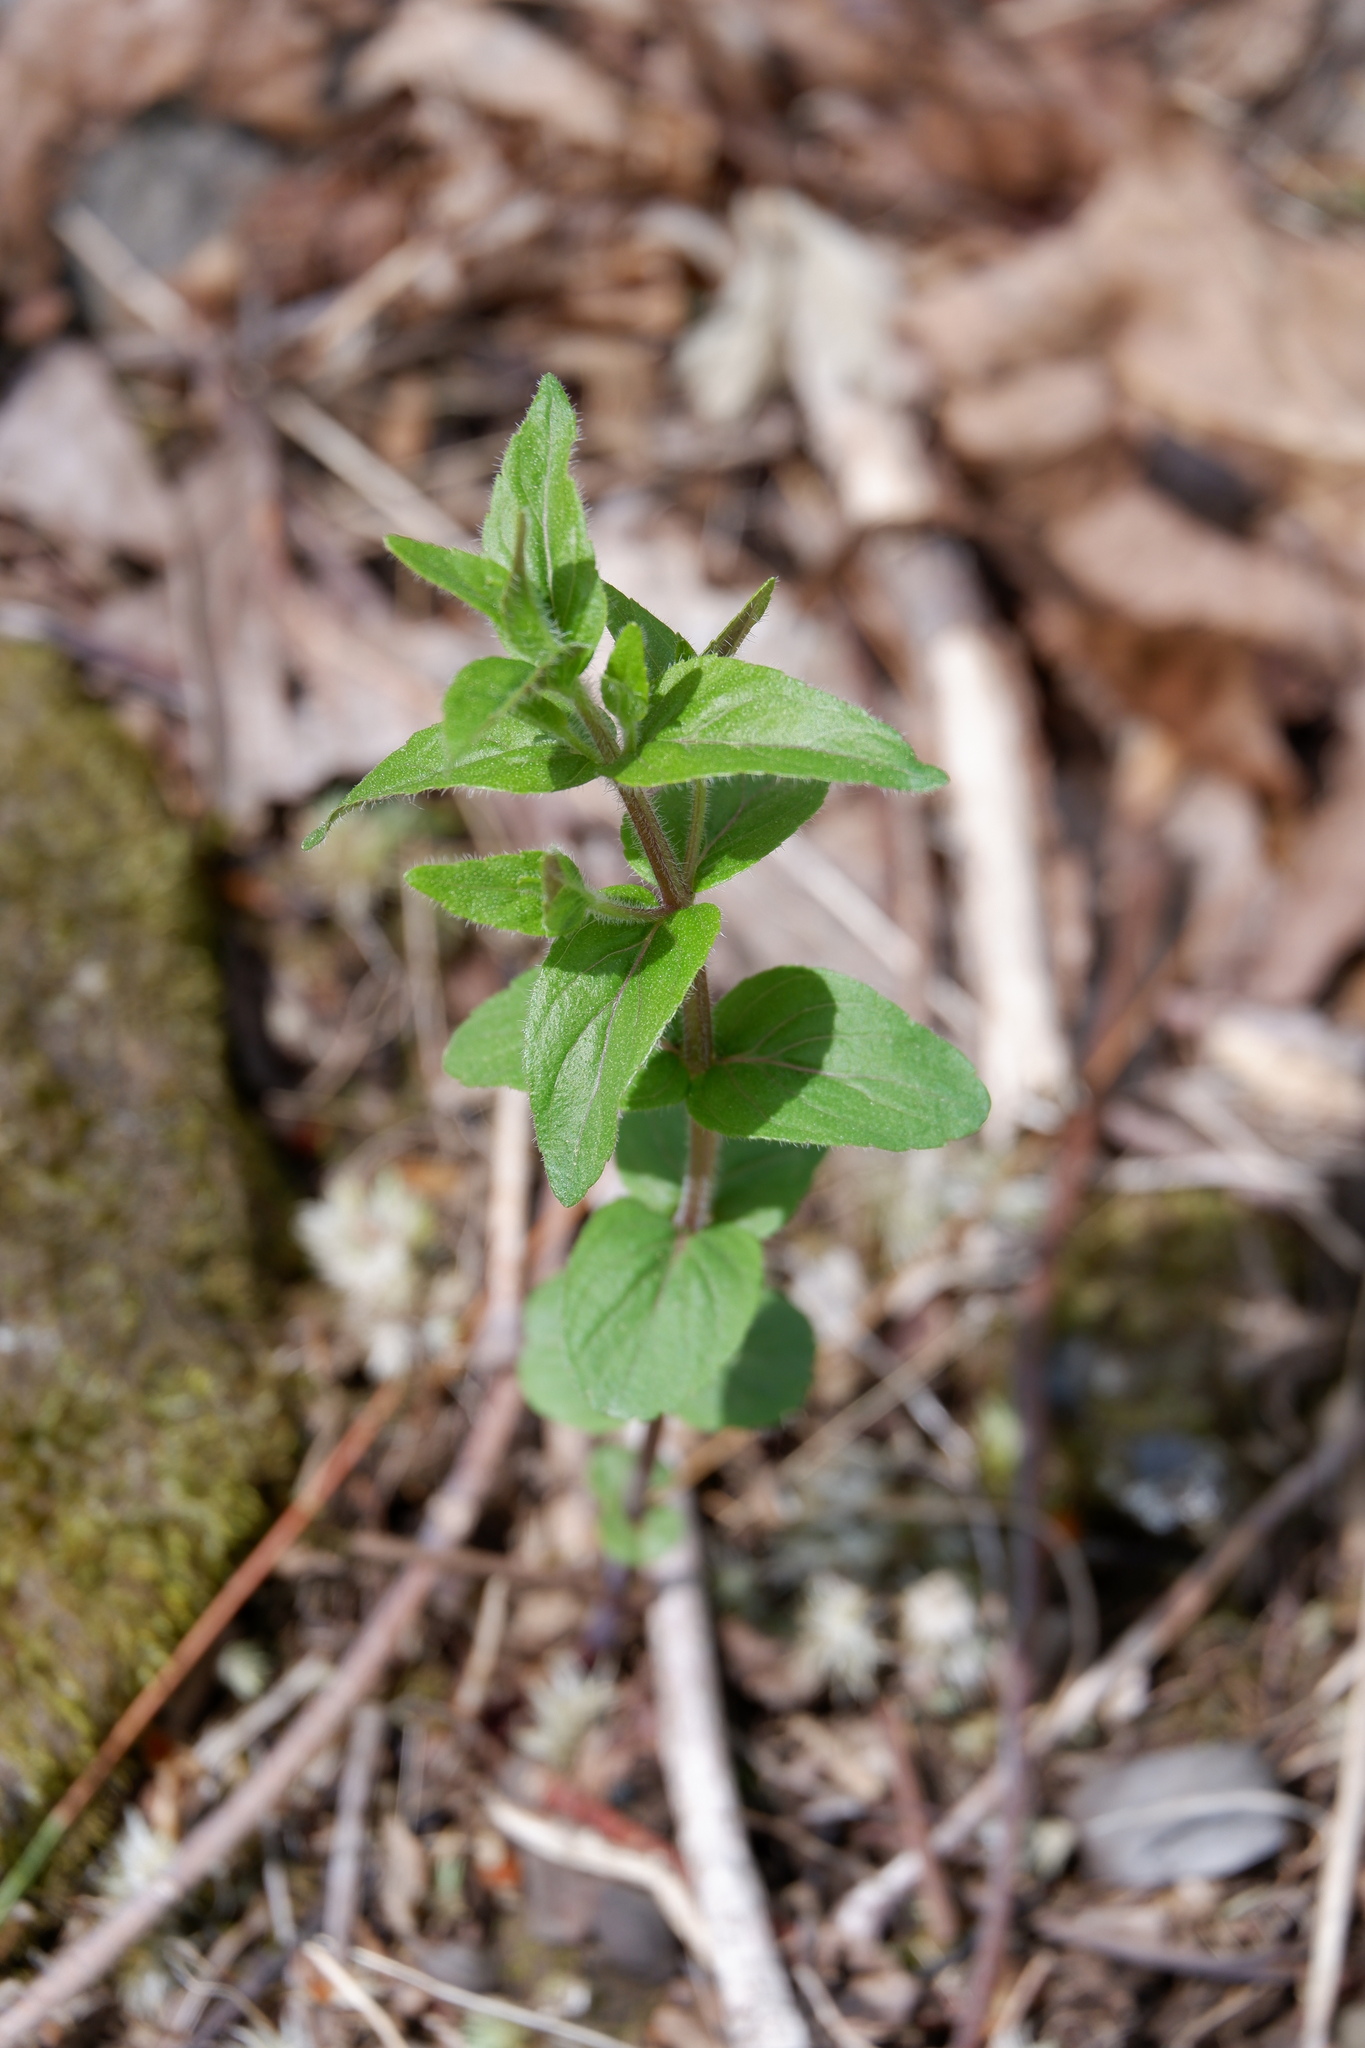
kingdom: Plantae
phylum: Tracheophyta
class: Magnoliopsida
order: Lamiales
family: Lamiaceae
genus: Cunila
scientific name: Cunila origanoides
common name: American dittany
